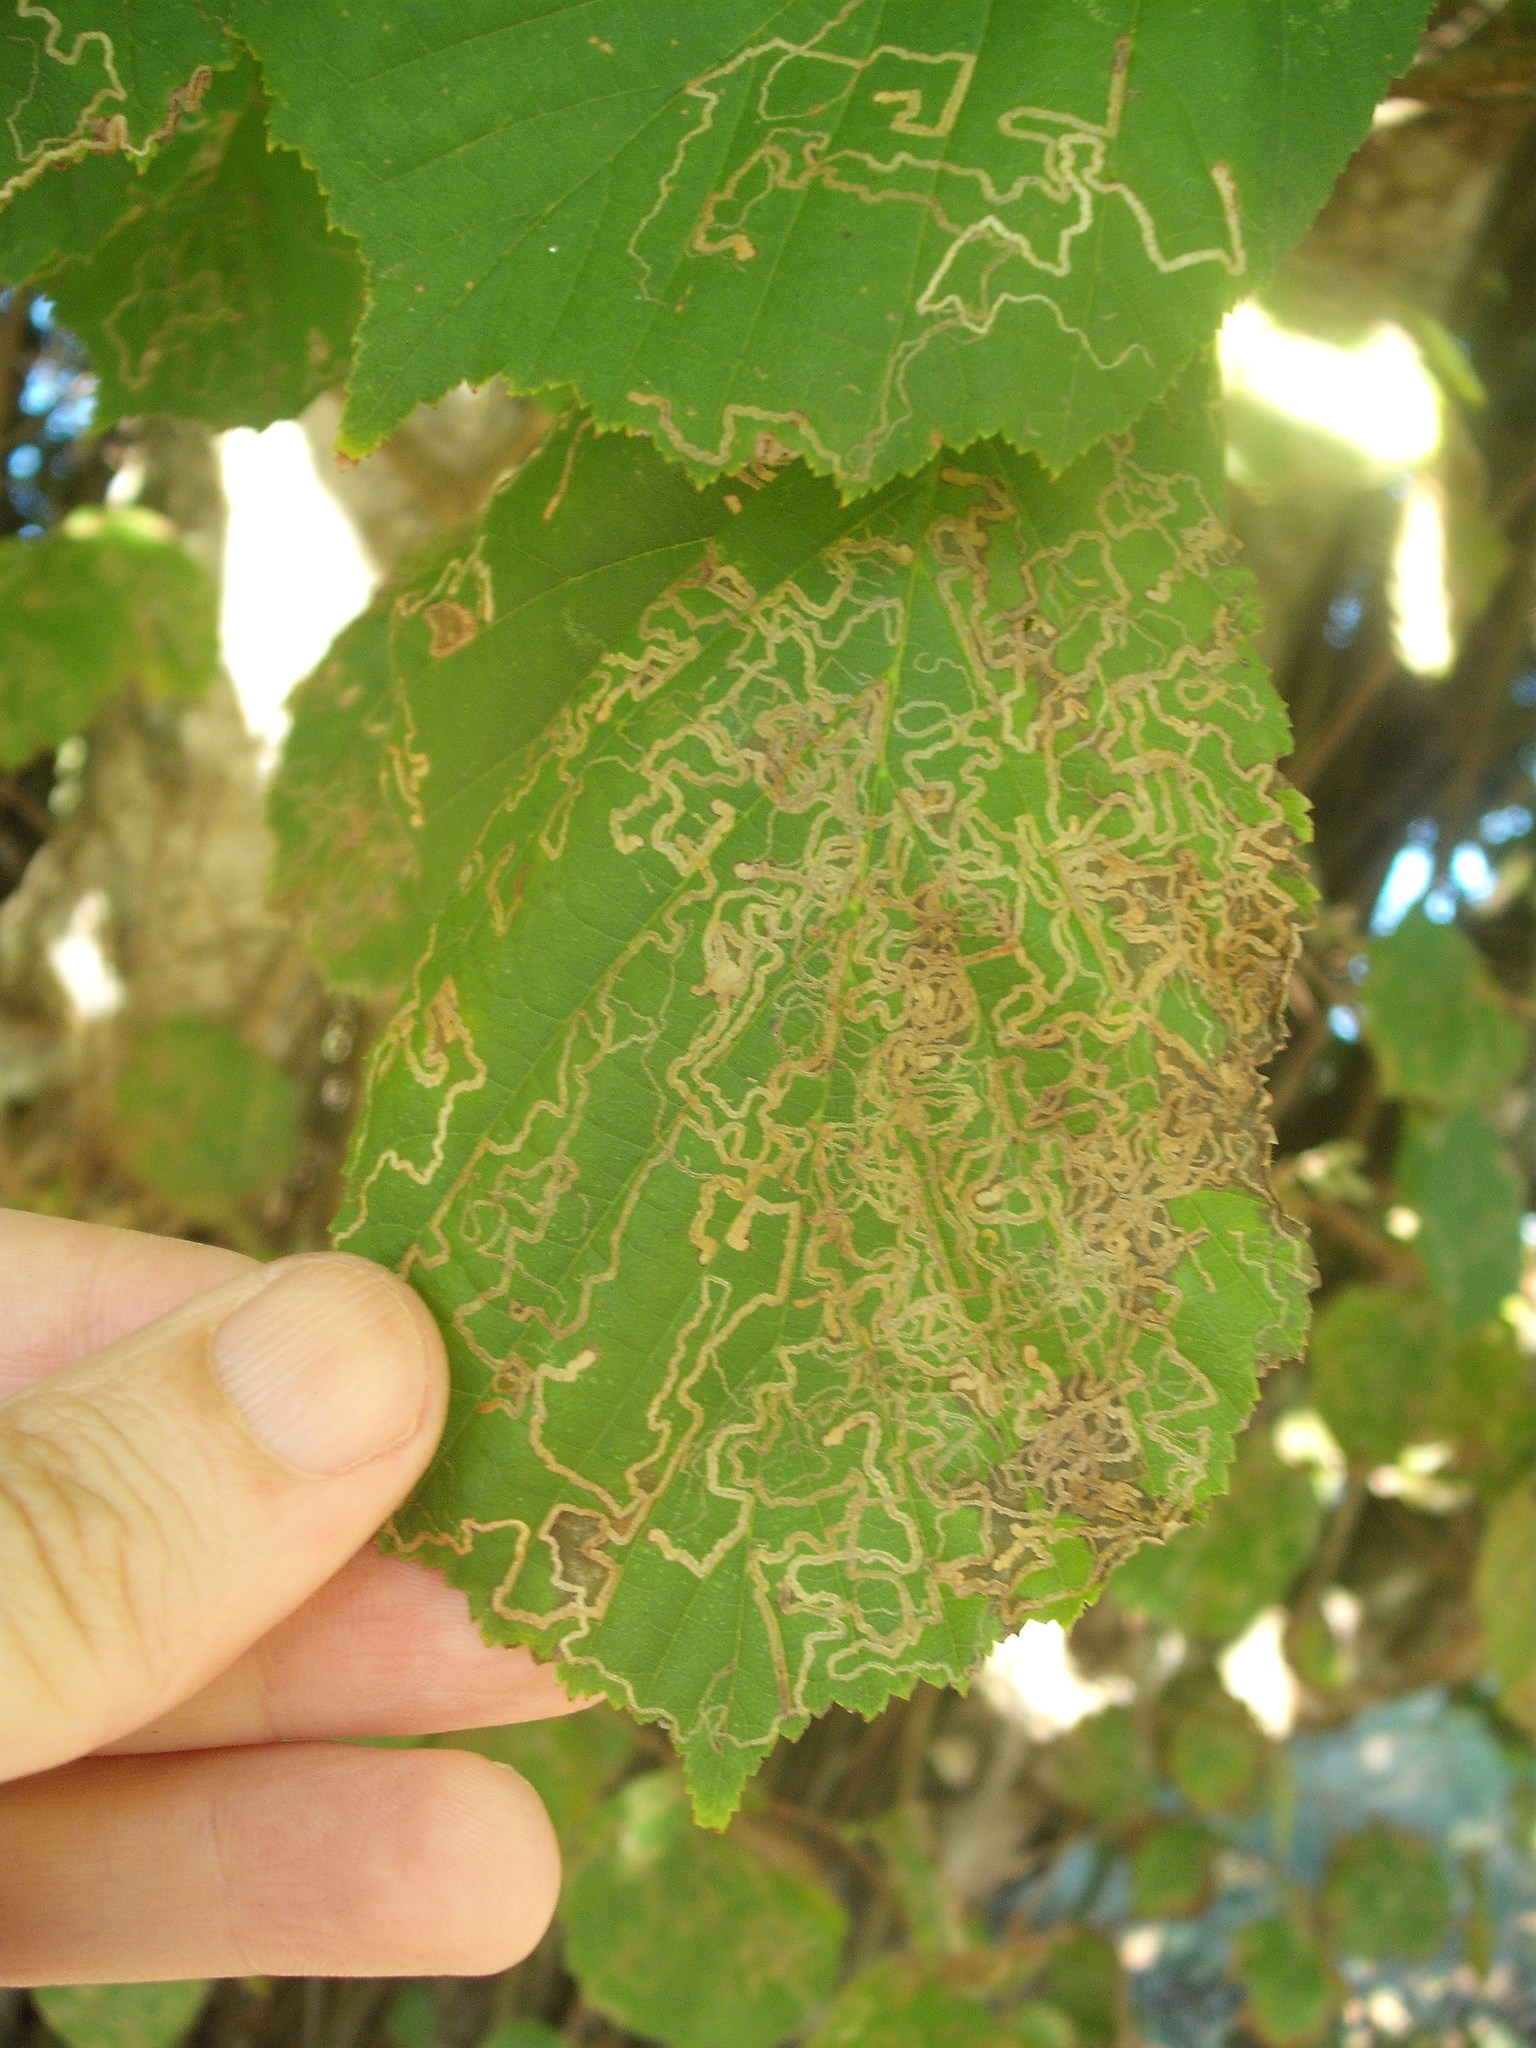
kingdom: Animalia
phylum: Arthropoda
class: Insecta
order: Lepidoptera
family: Nepticulidae
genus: Stigmella
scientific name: Stigmella microtheriella
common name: Nut-tree pigmy
